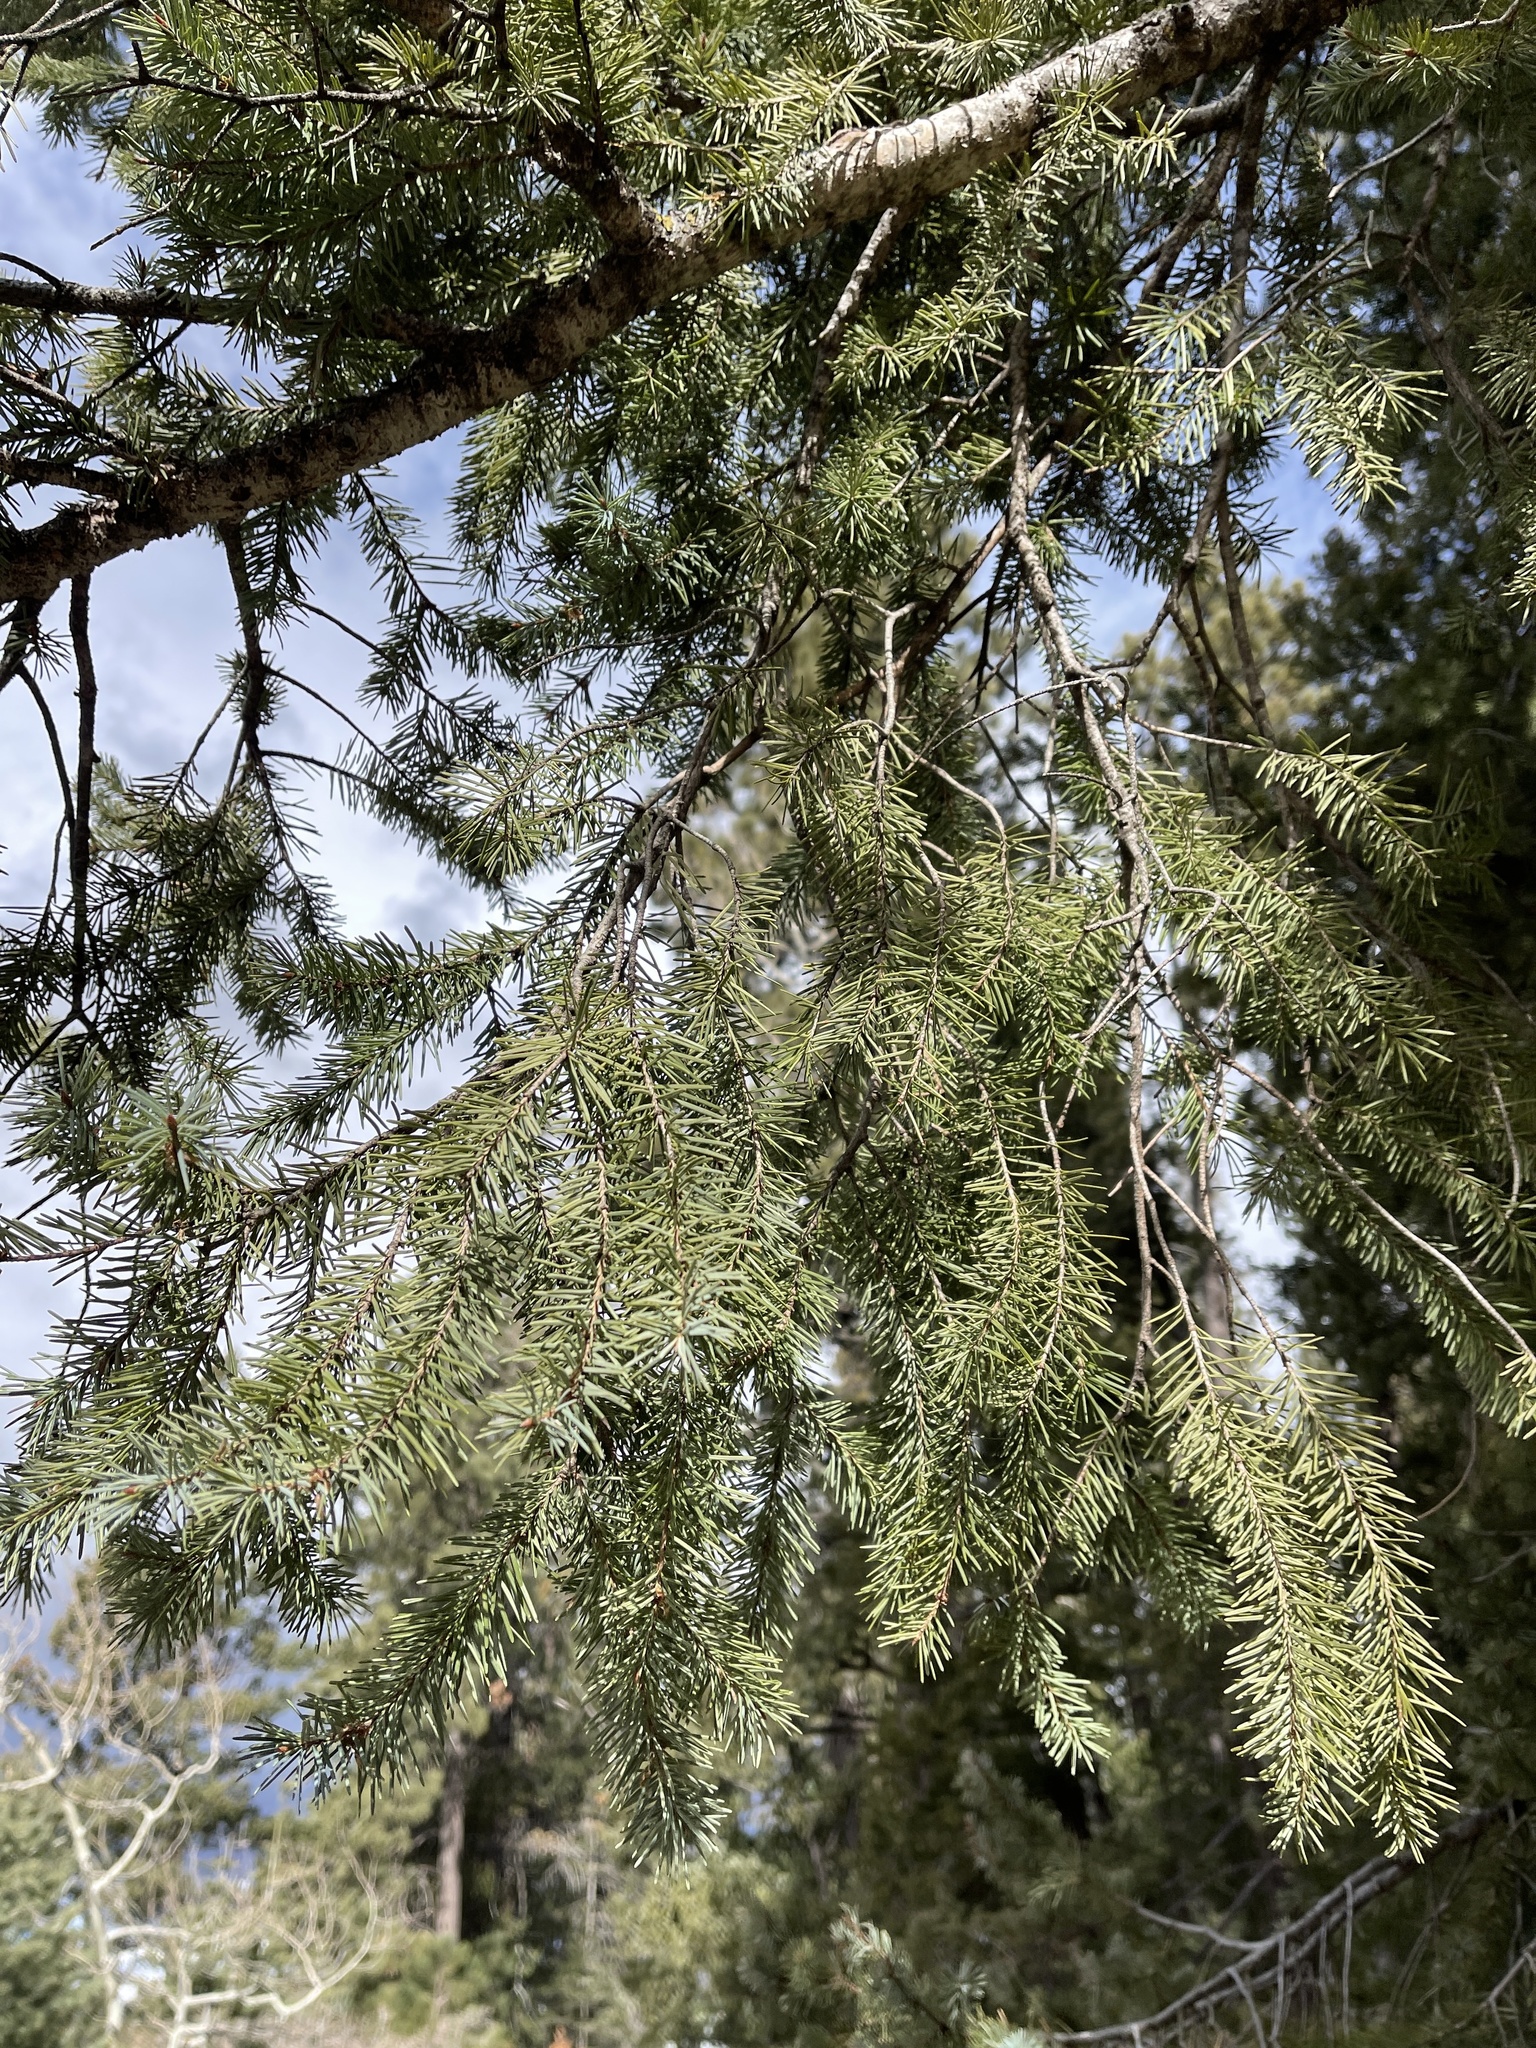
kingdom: Plantae
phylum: Tracheophyta
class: Pinopsida
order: Pinales
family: Pinaceae
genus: Pseudotsuga
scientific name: Pseudotsuga menziesii
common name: Douglas fir
